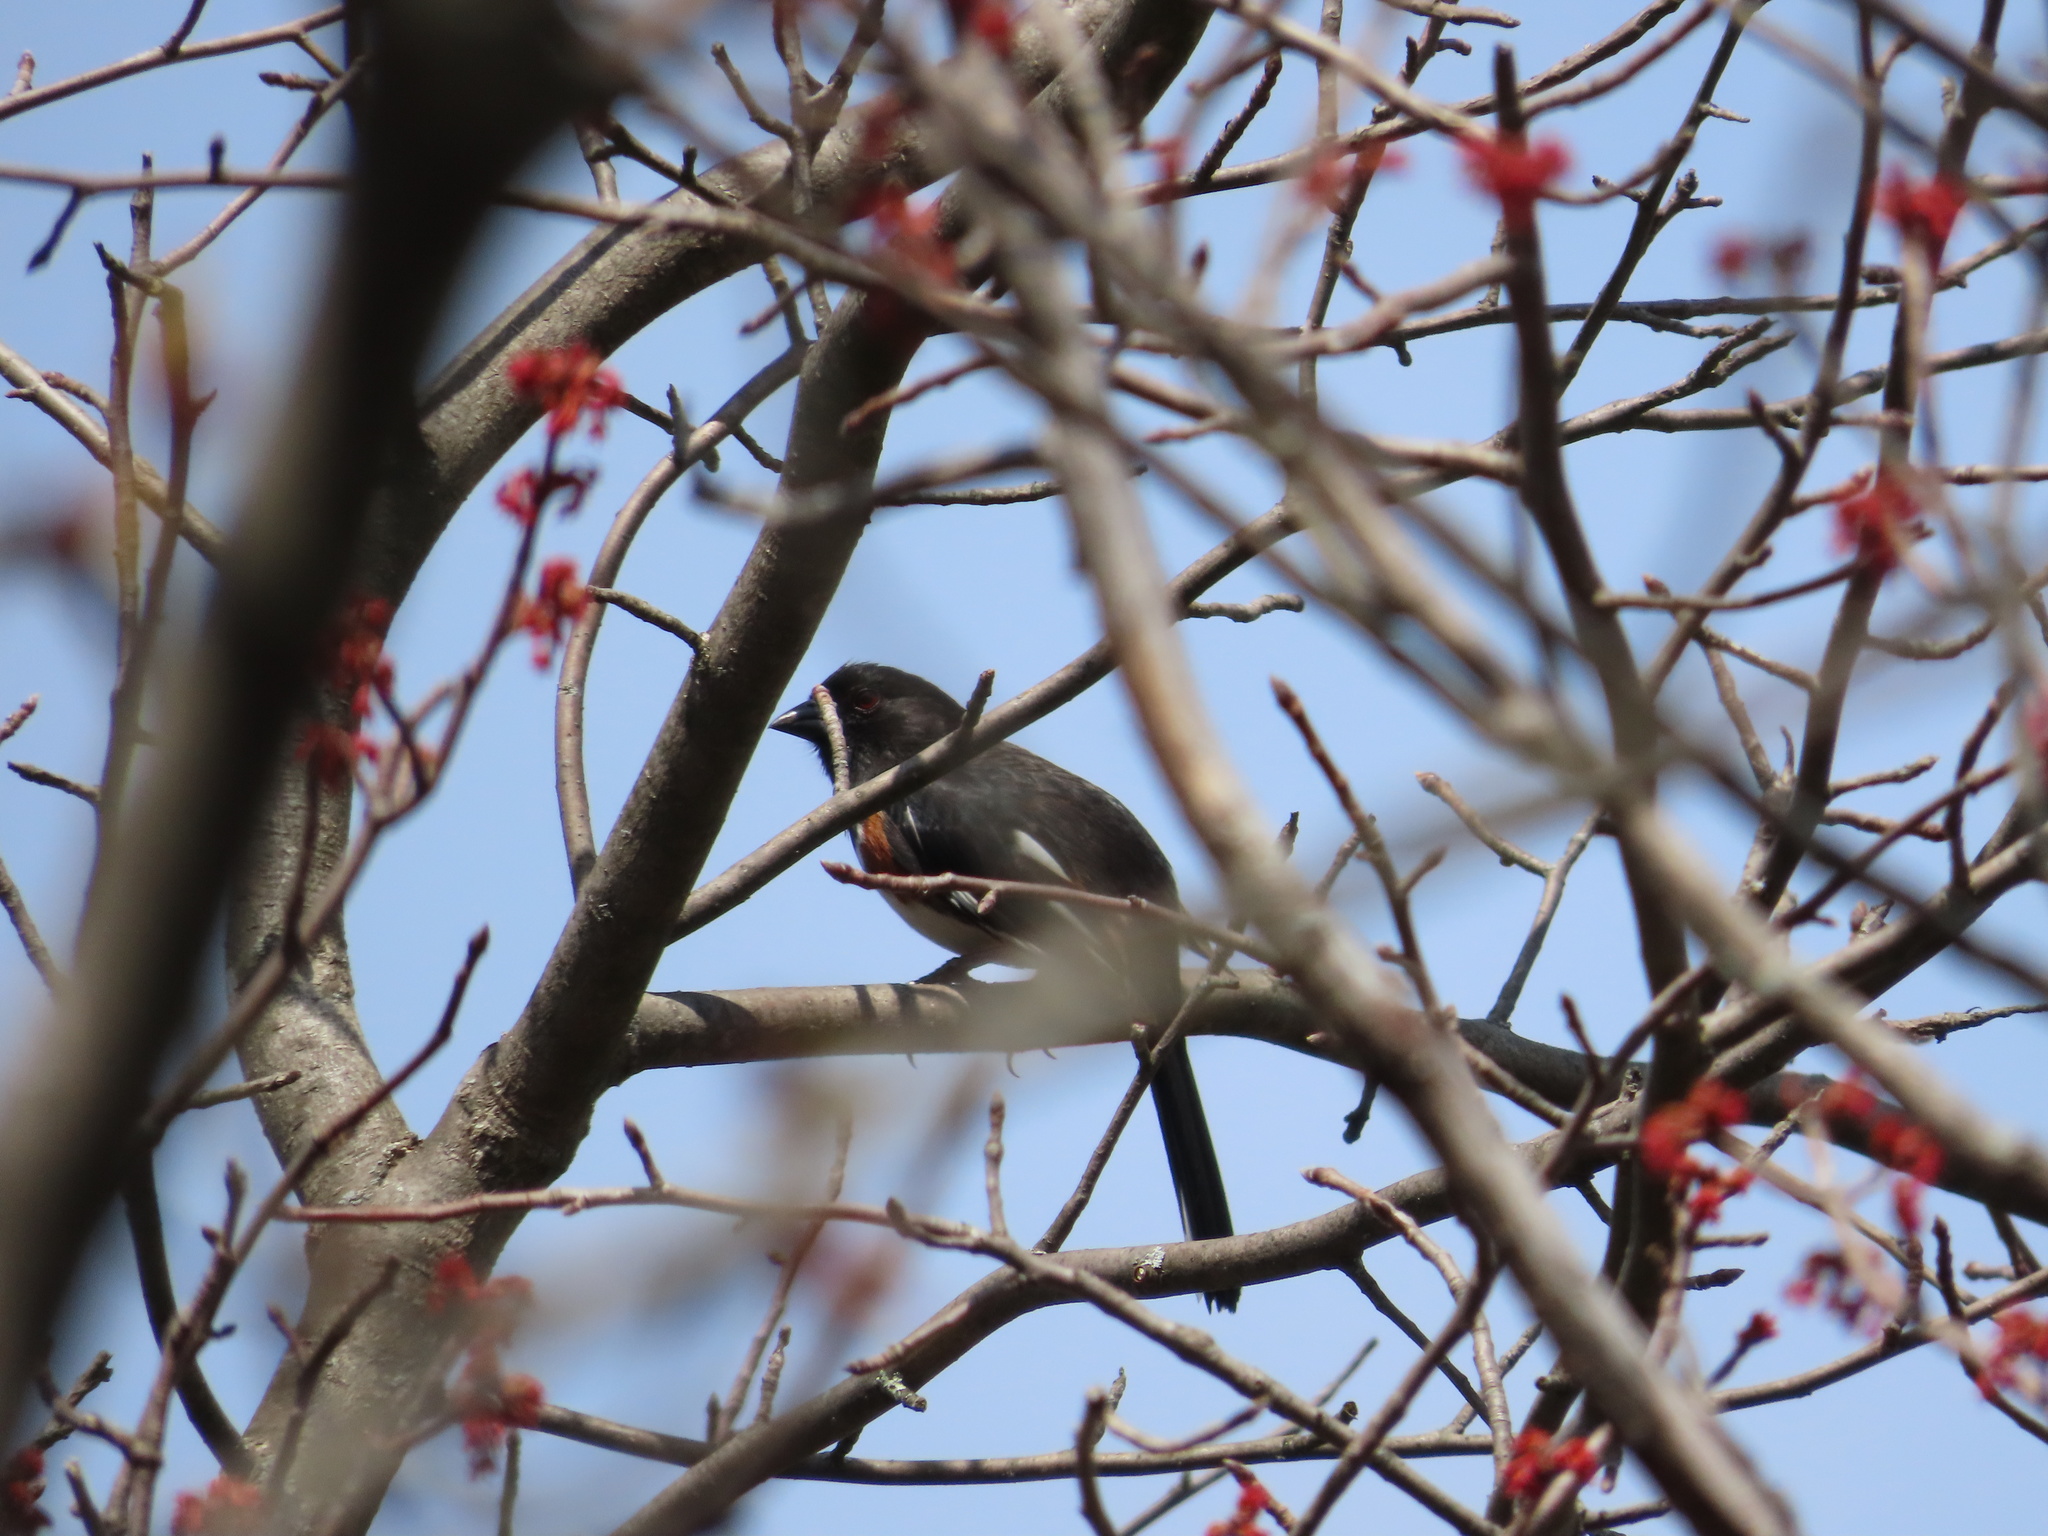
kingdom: Animalia
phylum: Chordata
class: Aves
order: Passeriformes
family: Passerellidae
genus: Pipilo
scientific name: Pipilo erythrophthalmus
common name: Eastern towhee
